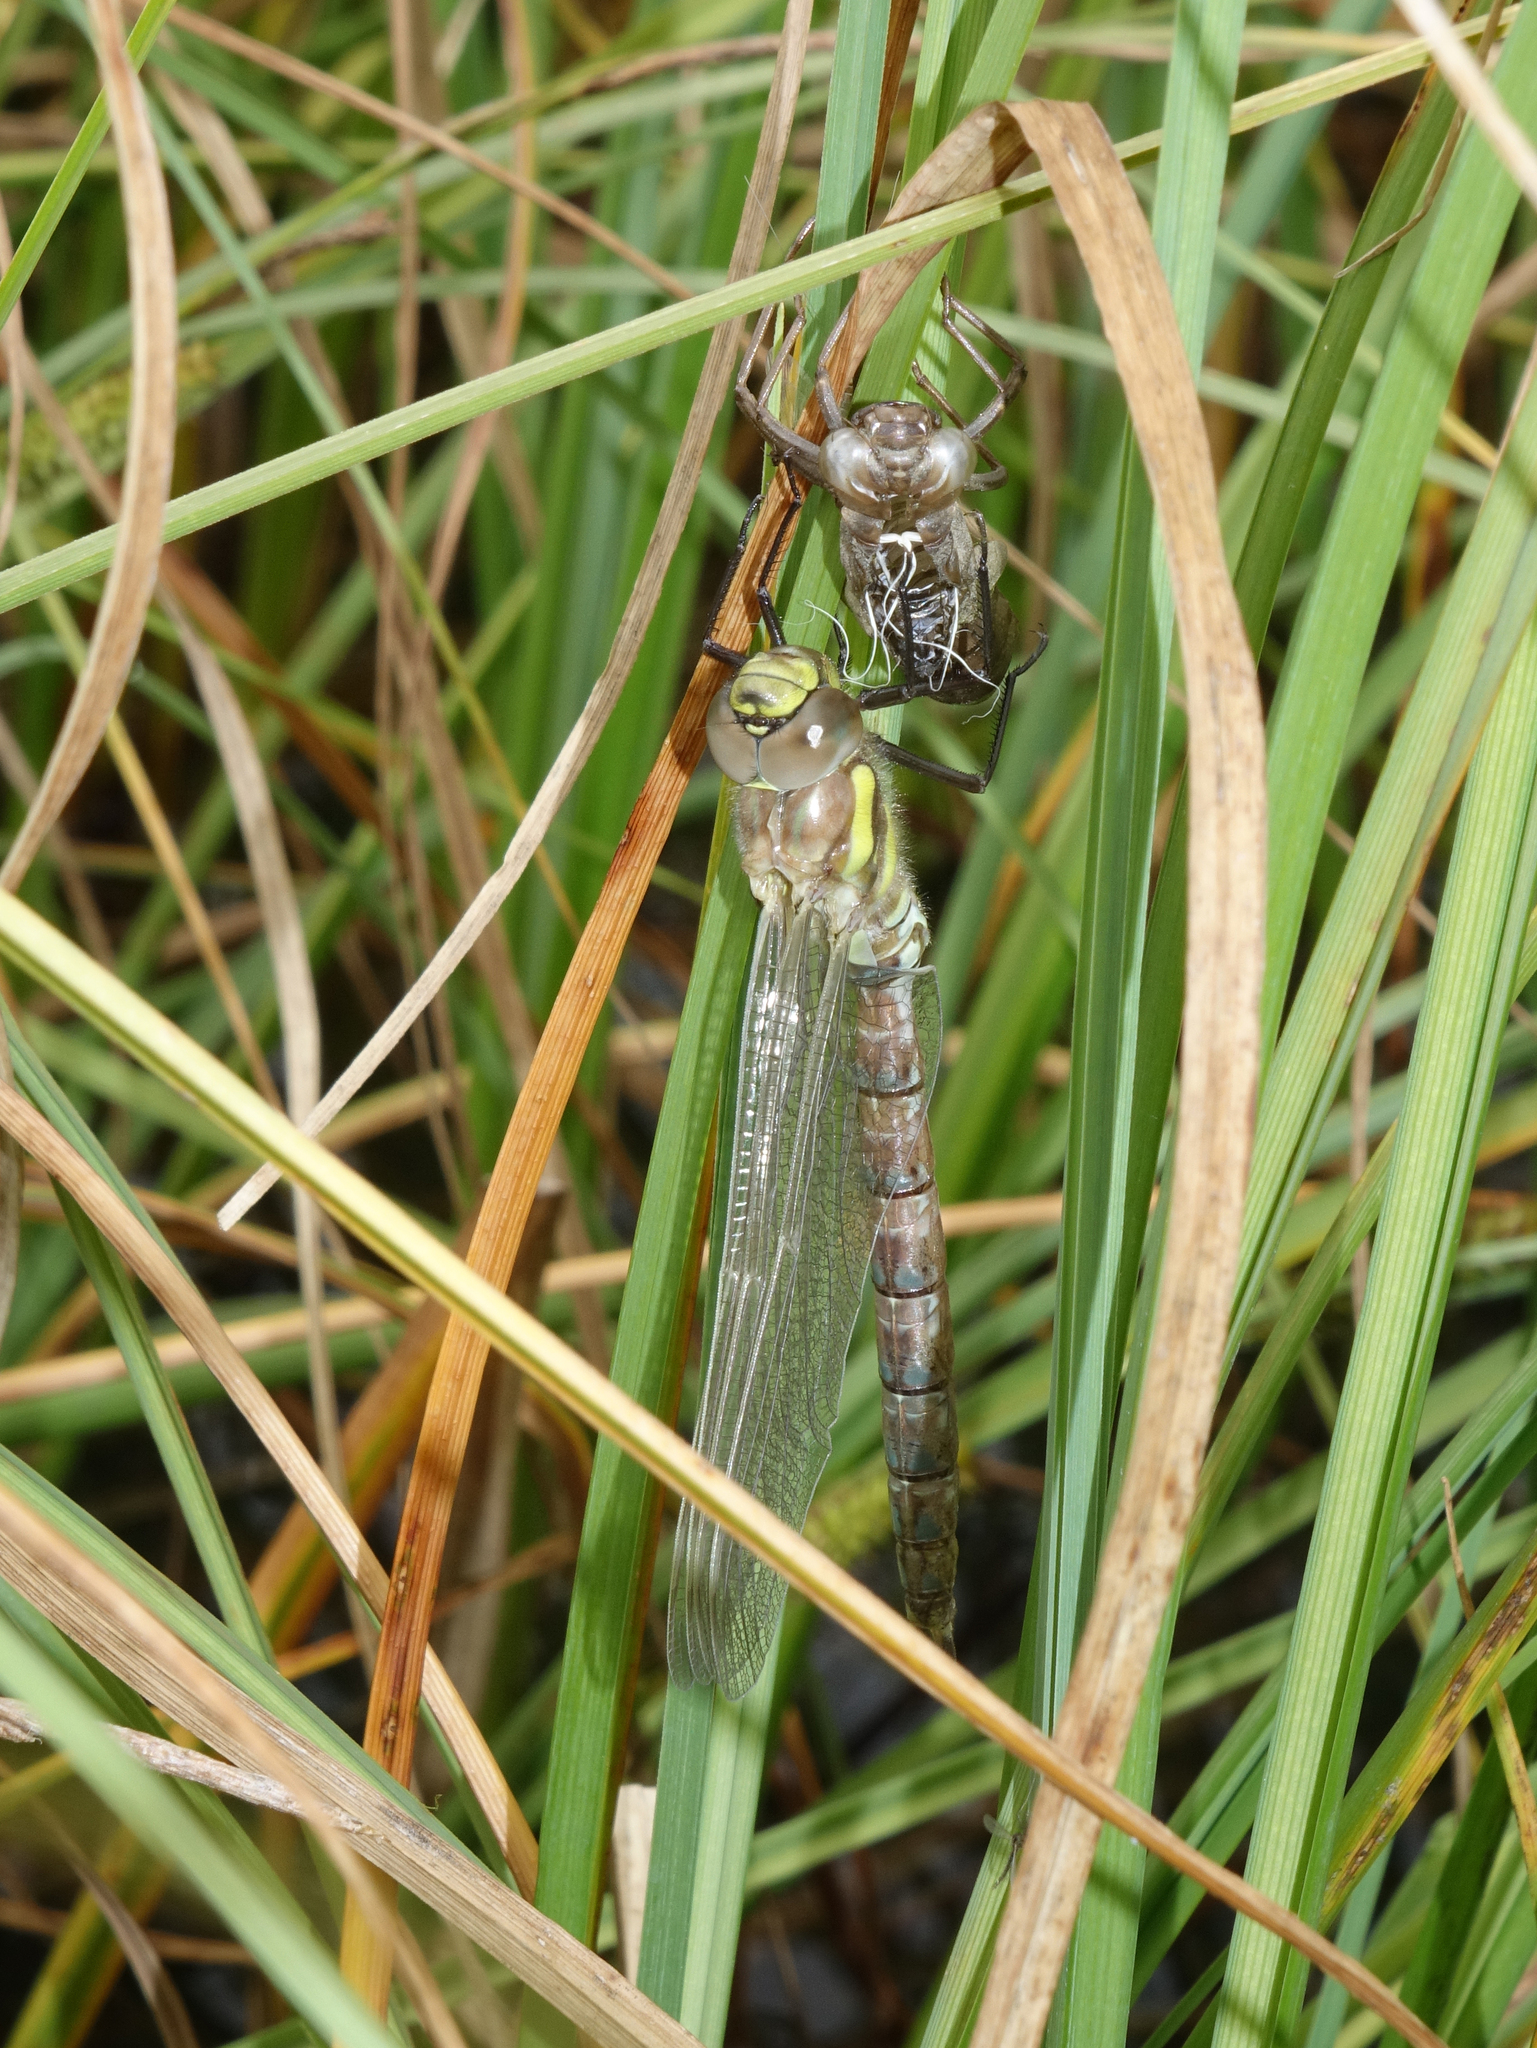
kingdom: Animalia
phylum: Arthropoda
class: Insecta
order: Odonata
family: Aeshnidae
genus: Aeshna
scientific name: Aeshna juncea
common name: Moorland hawker
